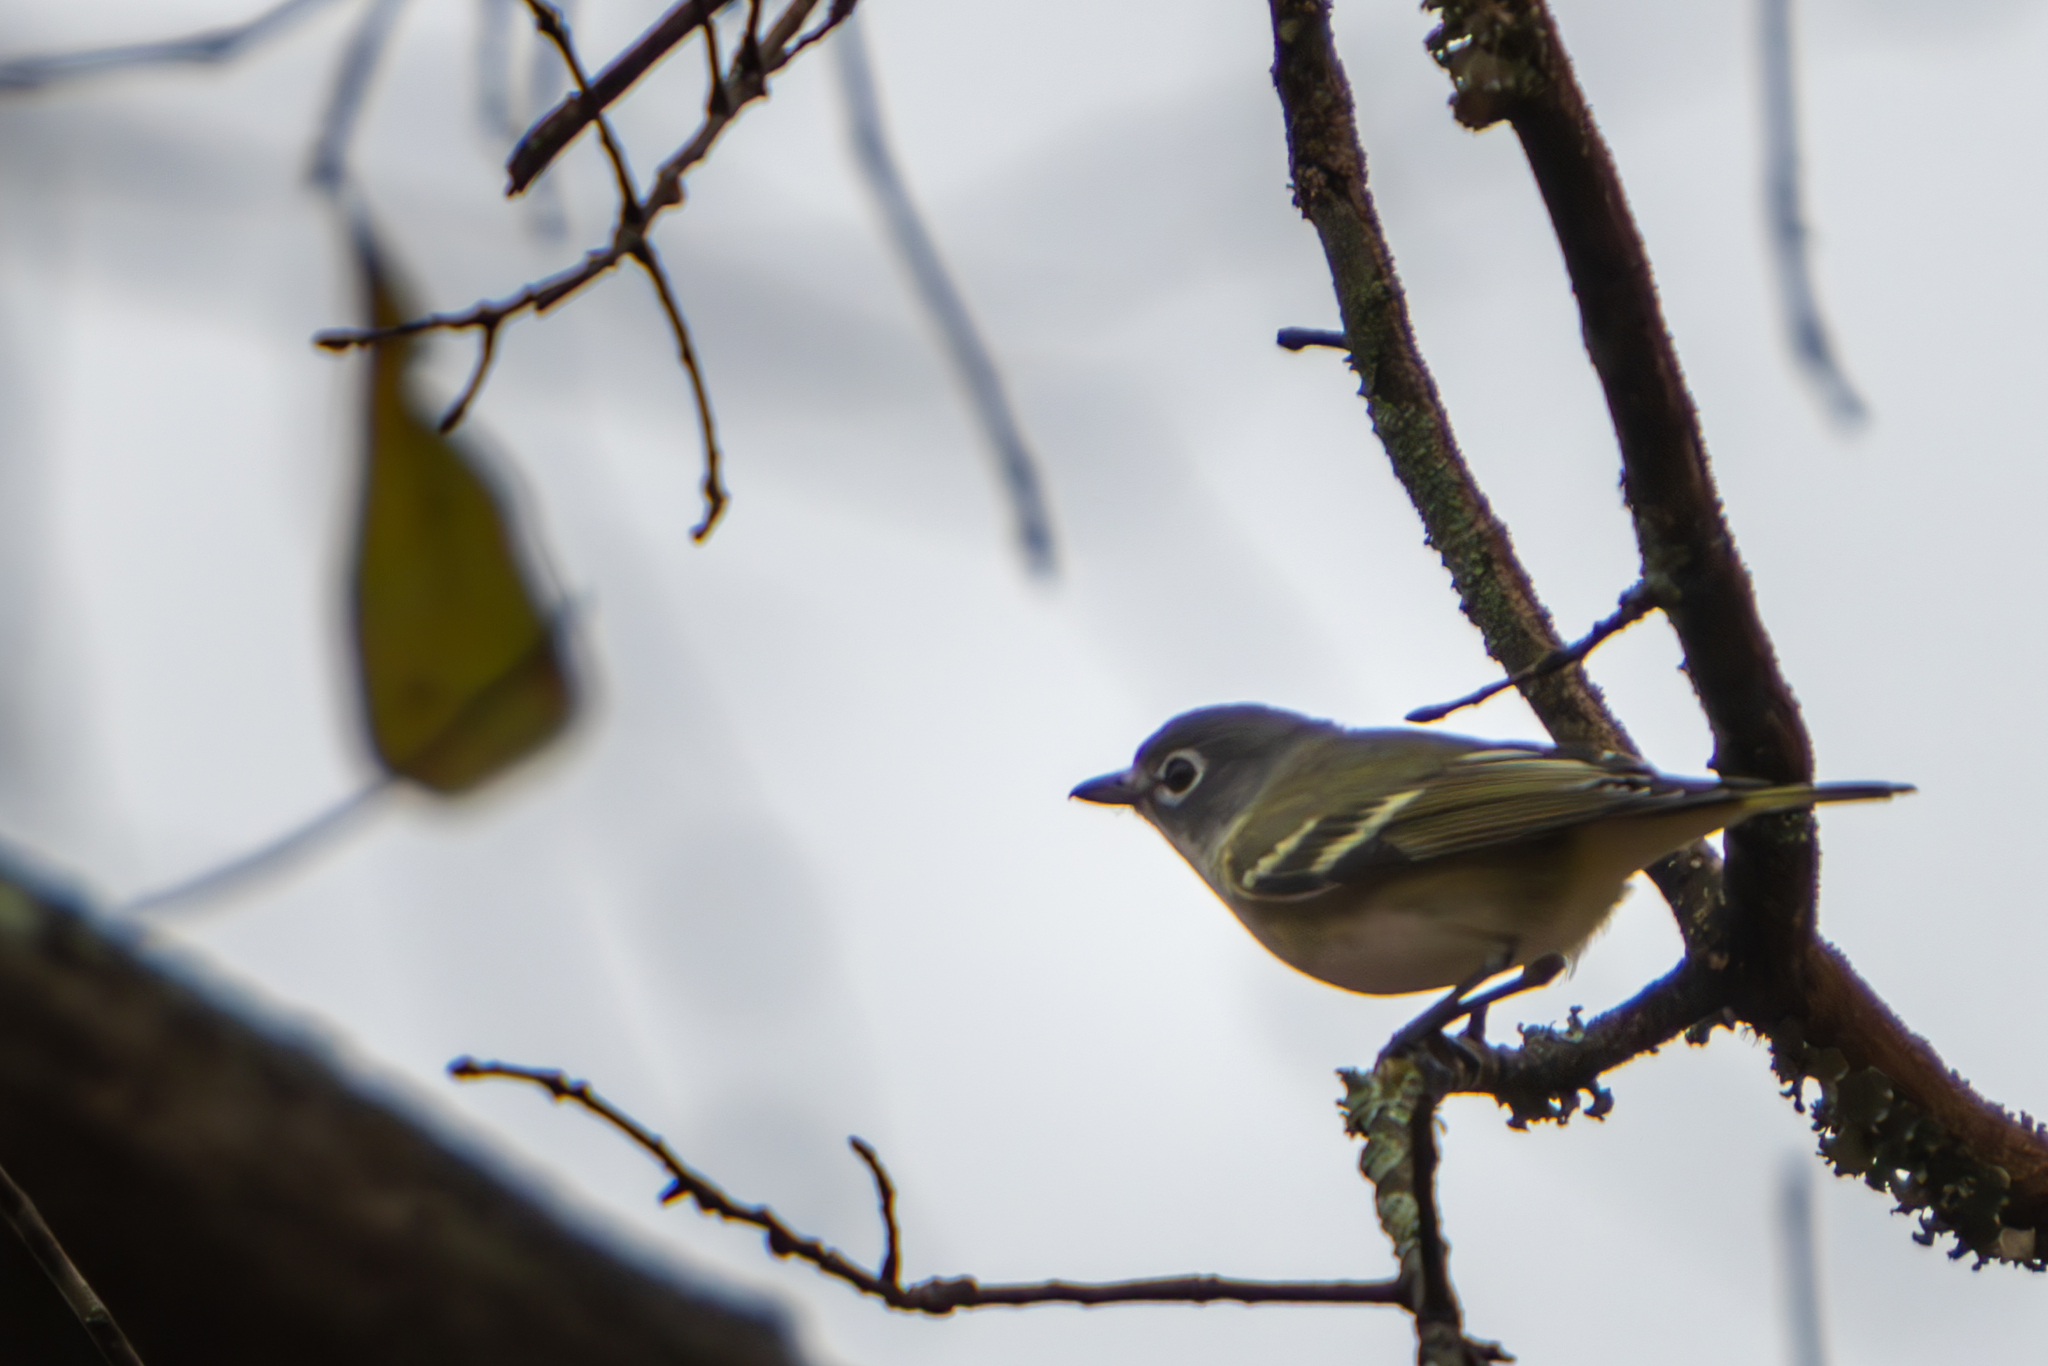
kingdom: Animalia
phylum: Chordata
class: Aves
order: Passeriformes
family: Vireonidae
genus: Vireo
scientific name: Vireo solitarius
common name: Blue-headed vireo
